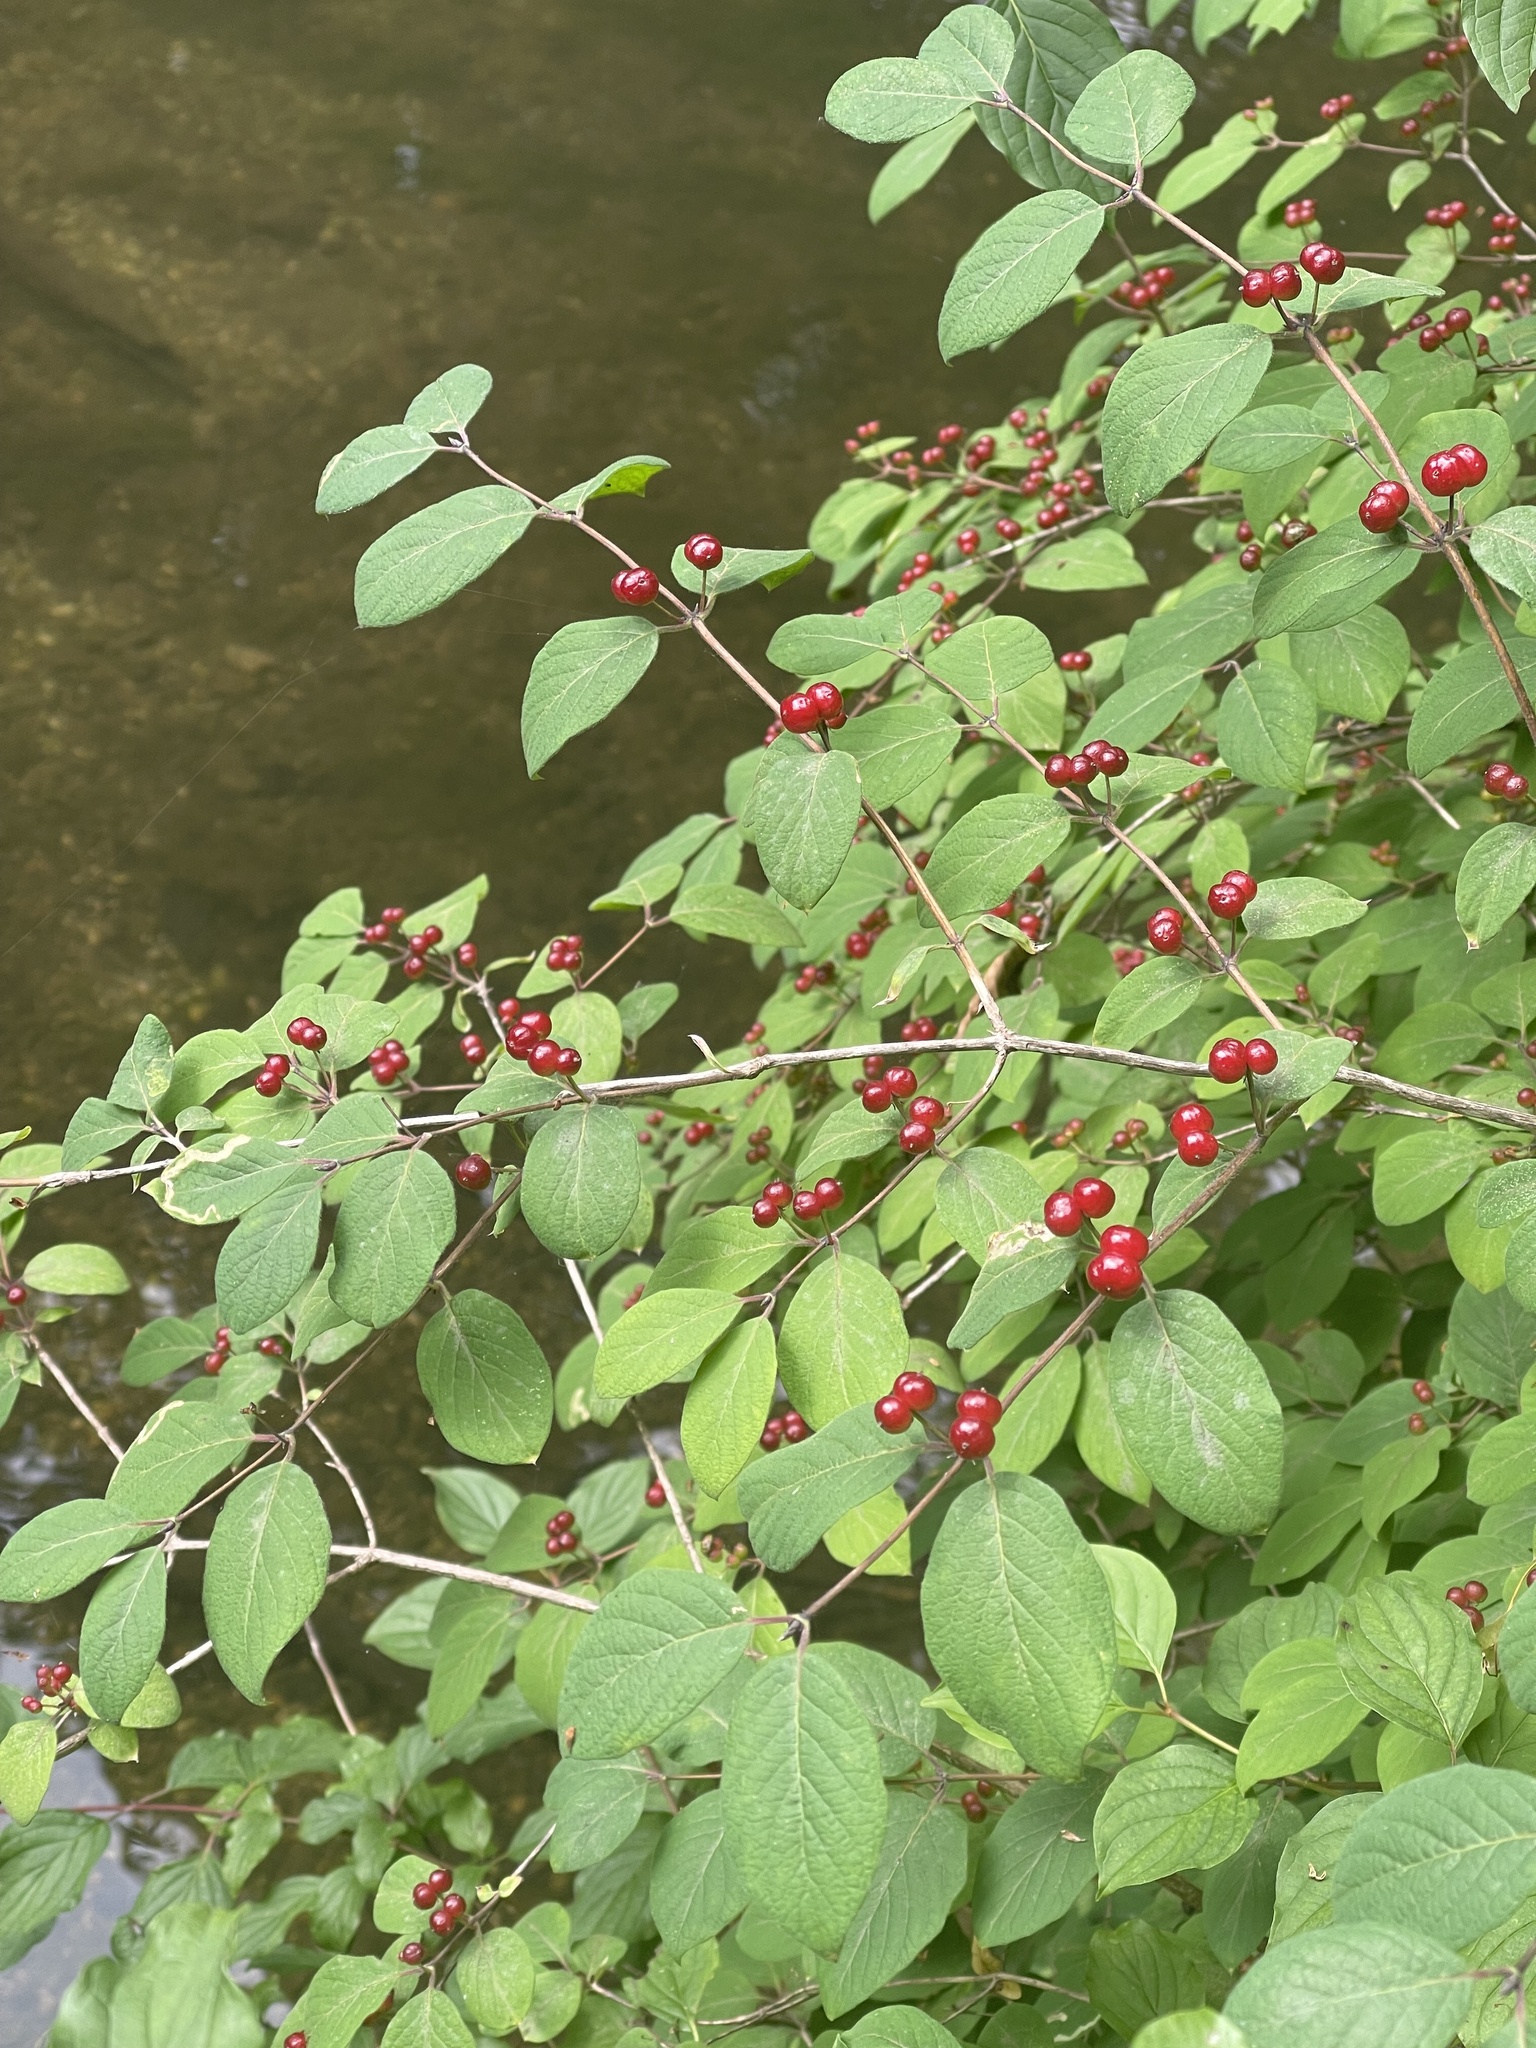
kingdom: Plantae
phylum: Tracheophyta
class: Magnoliopsida
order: Dipsacales
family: Caprifoliaceae
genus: Lonicera
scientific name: Lonicera xylosteum
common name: Fly honeysuckle
